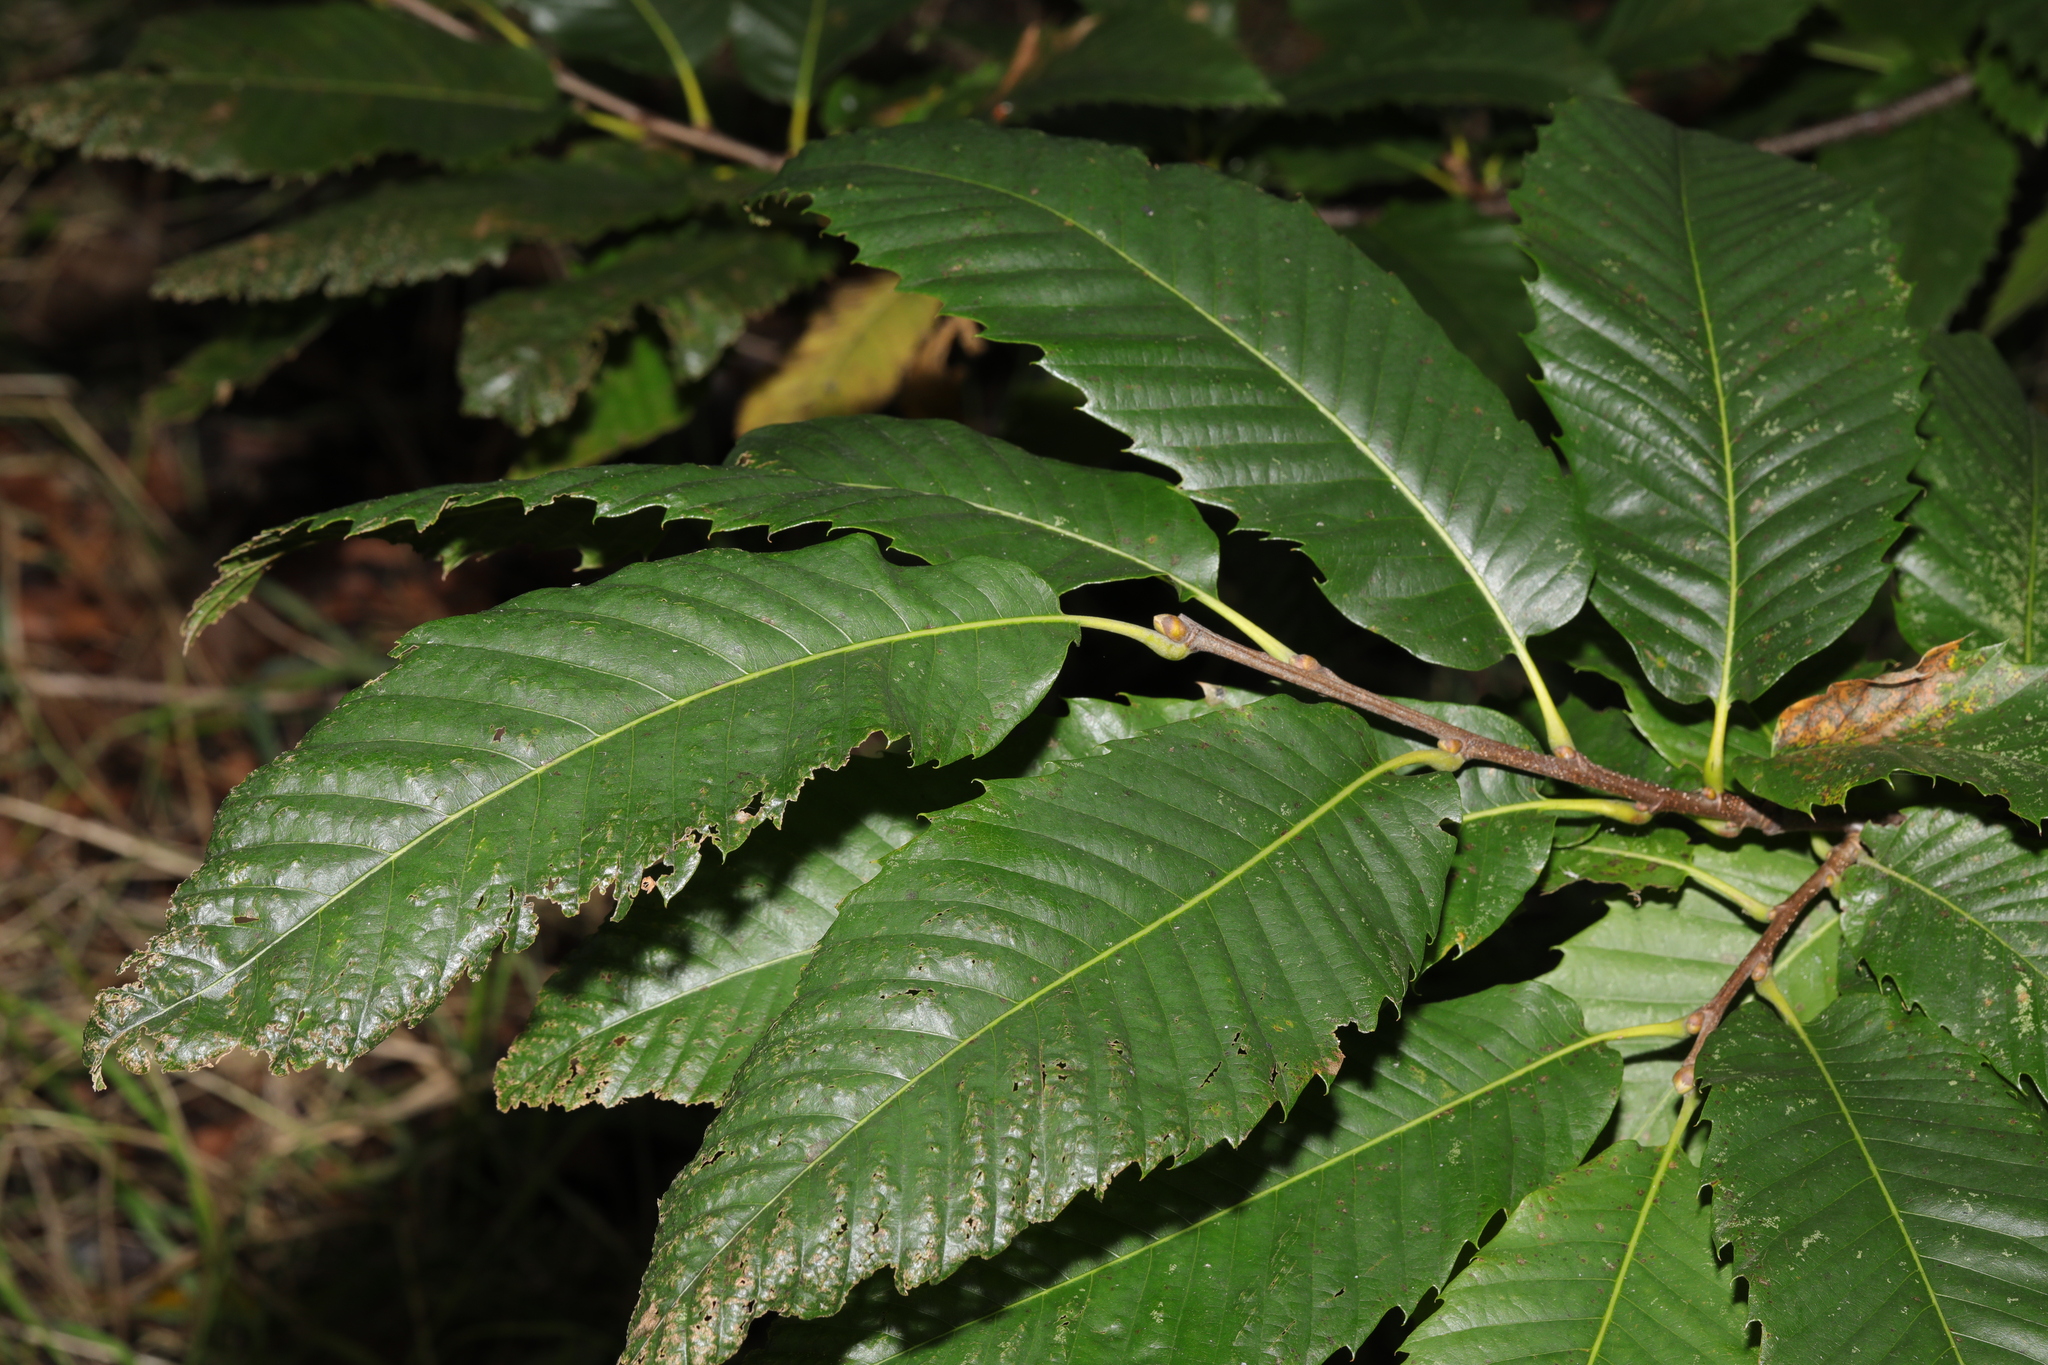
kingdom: Plantae
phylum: Tracheophyta
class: Magnoliopsida
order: Fagales
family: Fagaceae
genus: Castanea
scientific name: Castanea sativa
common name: Sweet chestnut
